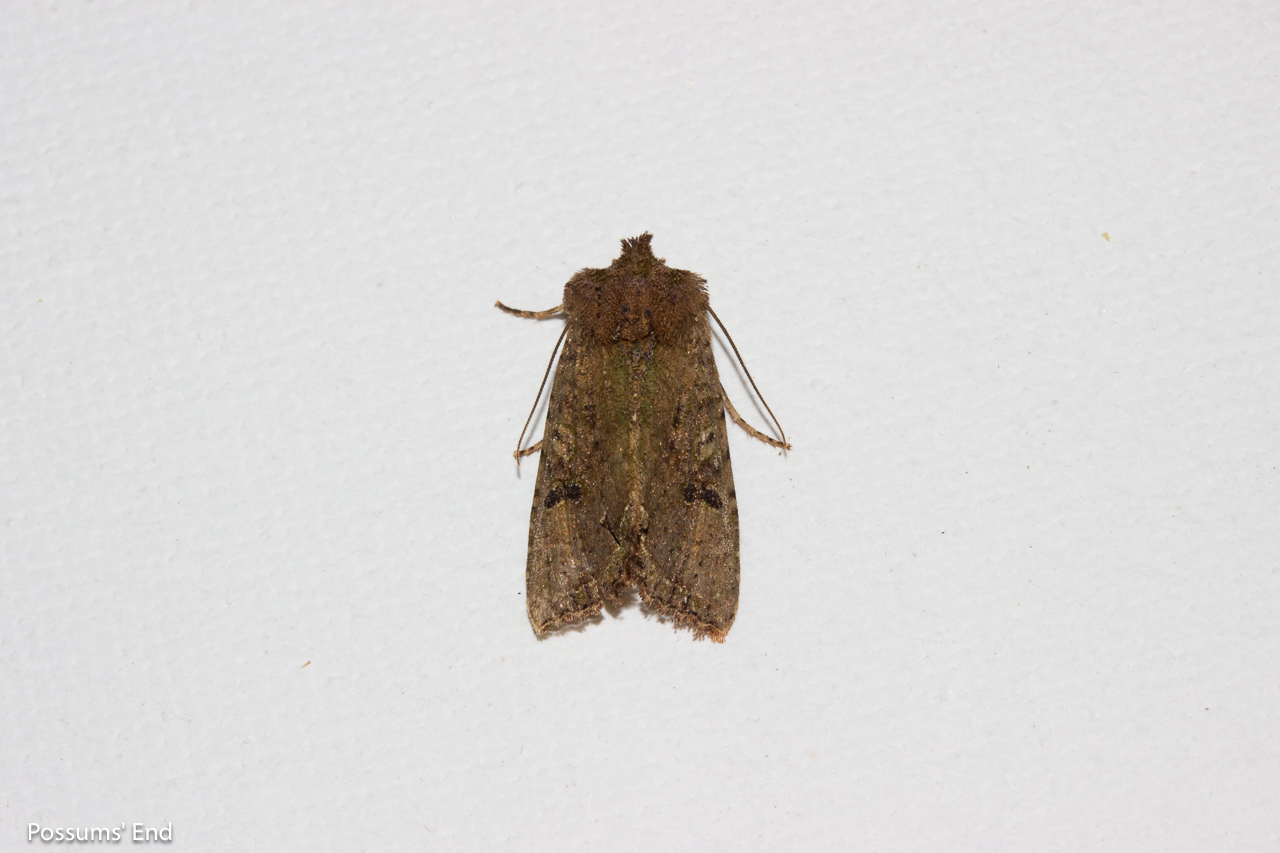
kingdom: Animalia
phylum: Arthropoda
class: Insecta
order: Lepidoptera
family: Noctuidae
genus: Meterana
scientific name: Meterana inchoata
